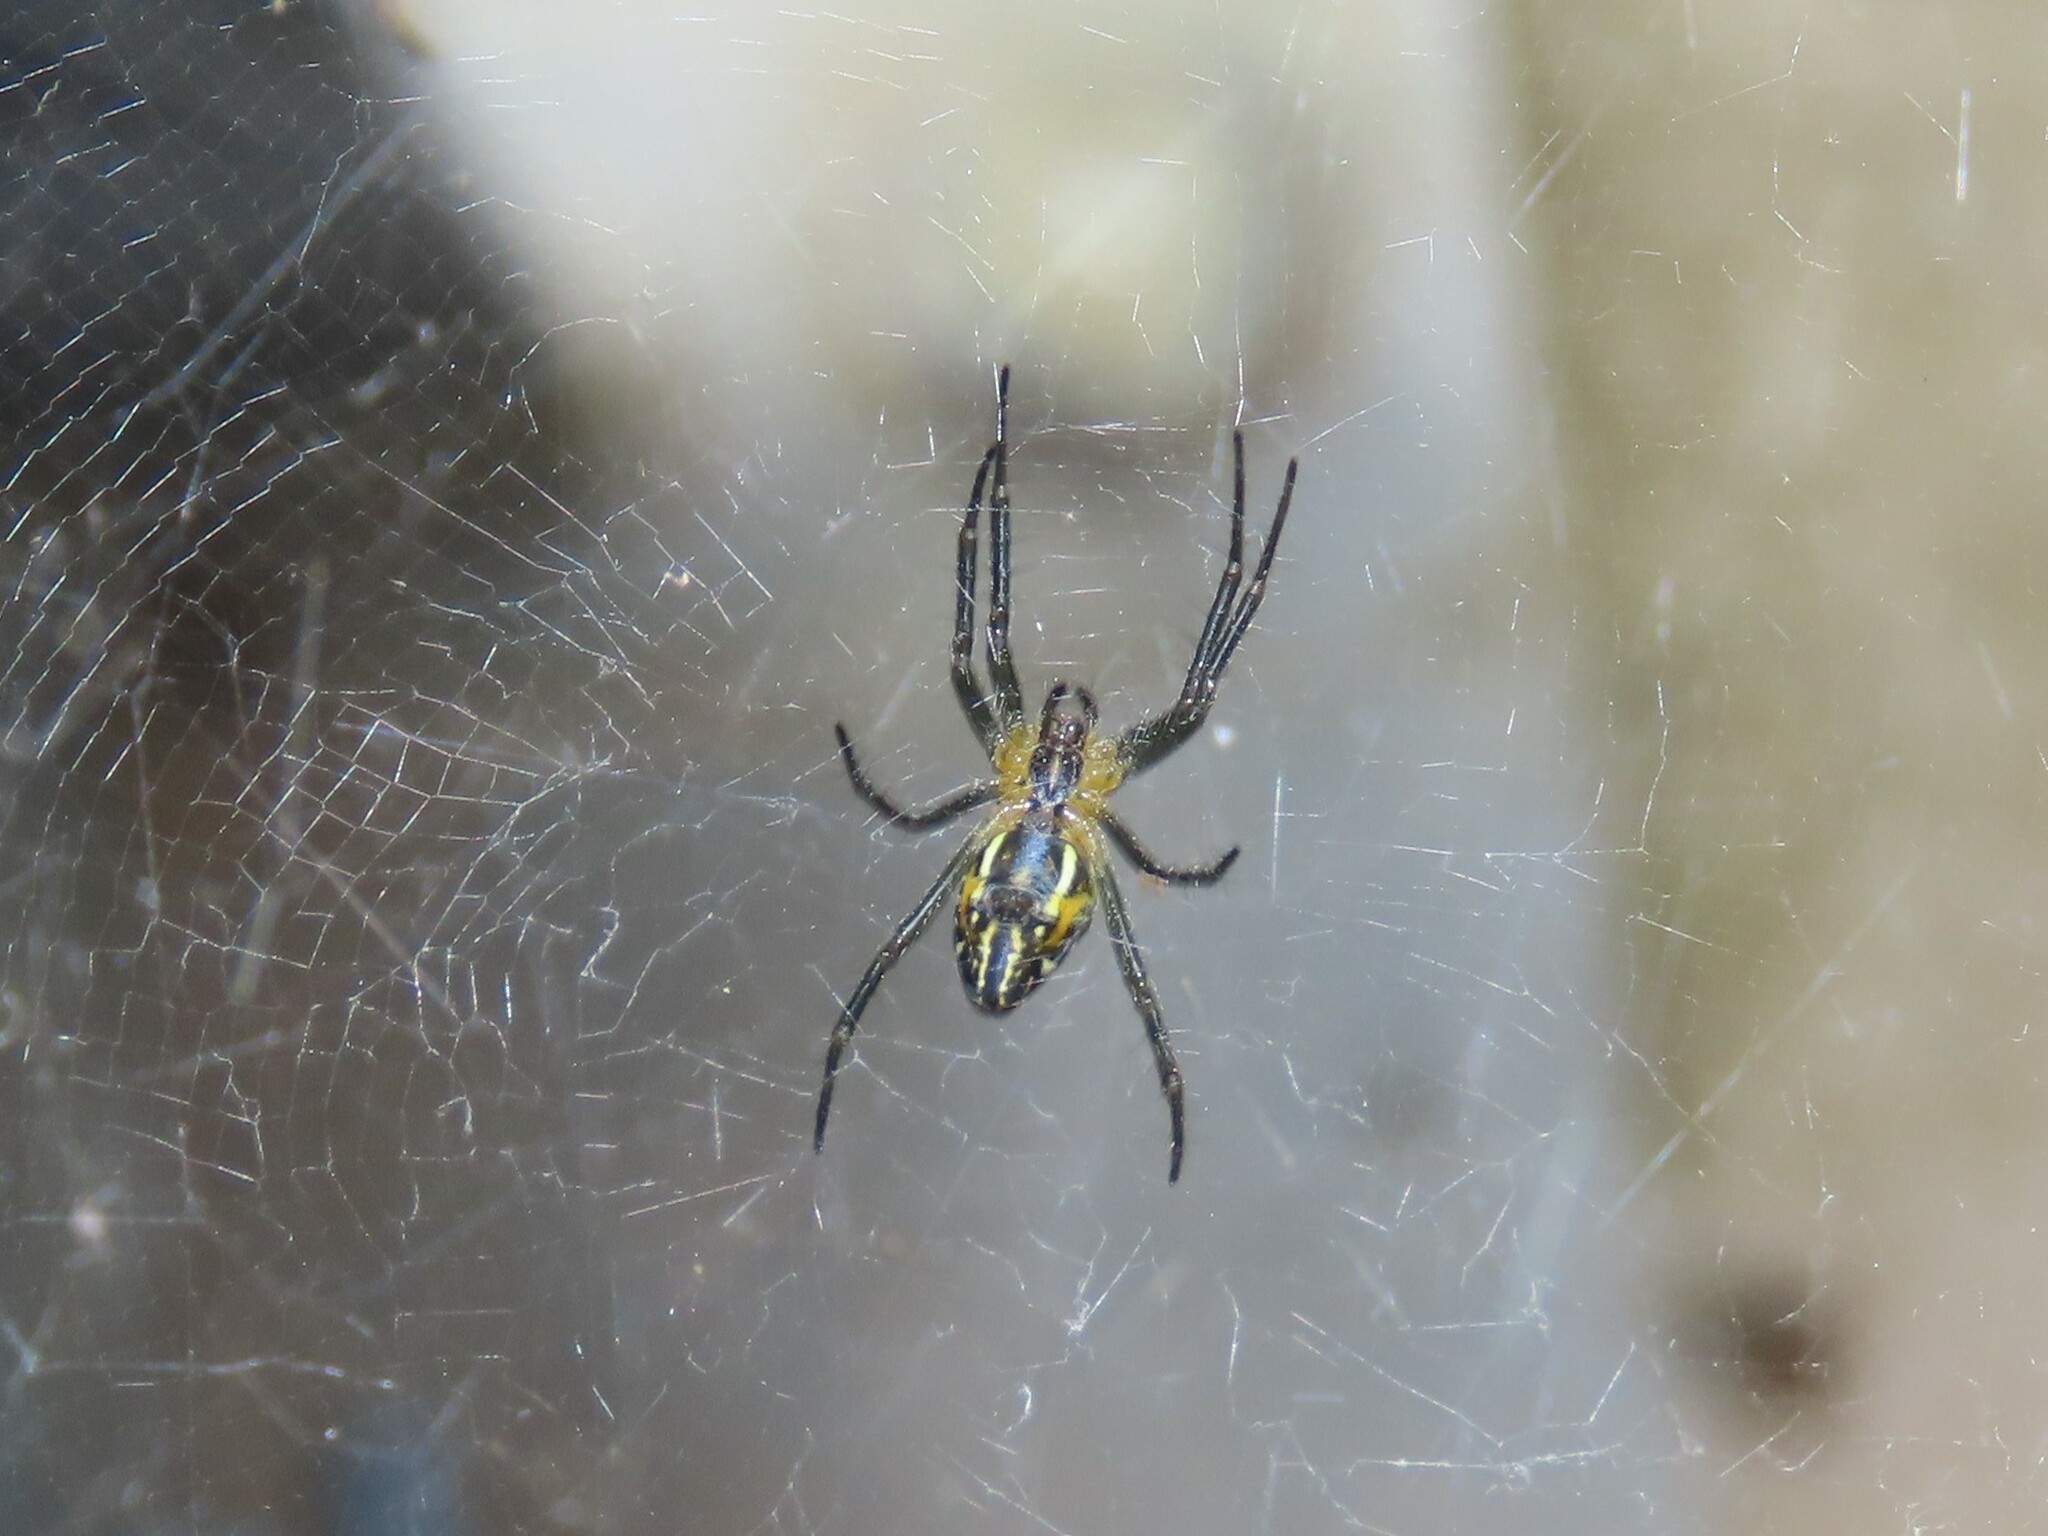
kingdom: Animalia
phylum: Arthropoda
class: Arachnida
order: Araneae
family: Araneidae
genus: Mecynogea
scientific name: Mecynogea lemniscata
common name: Orb weavers
